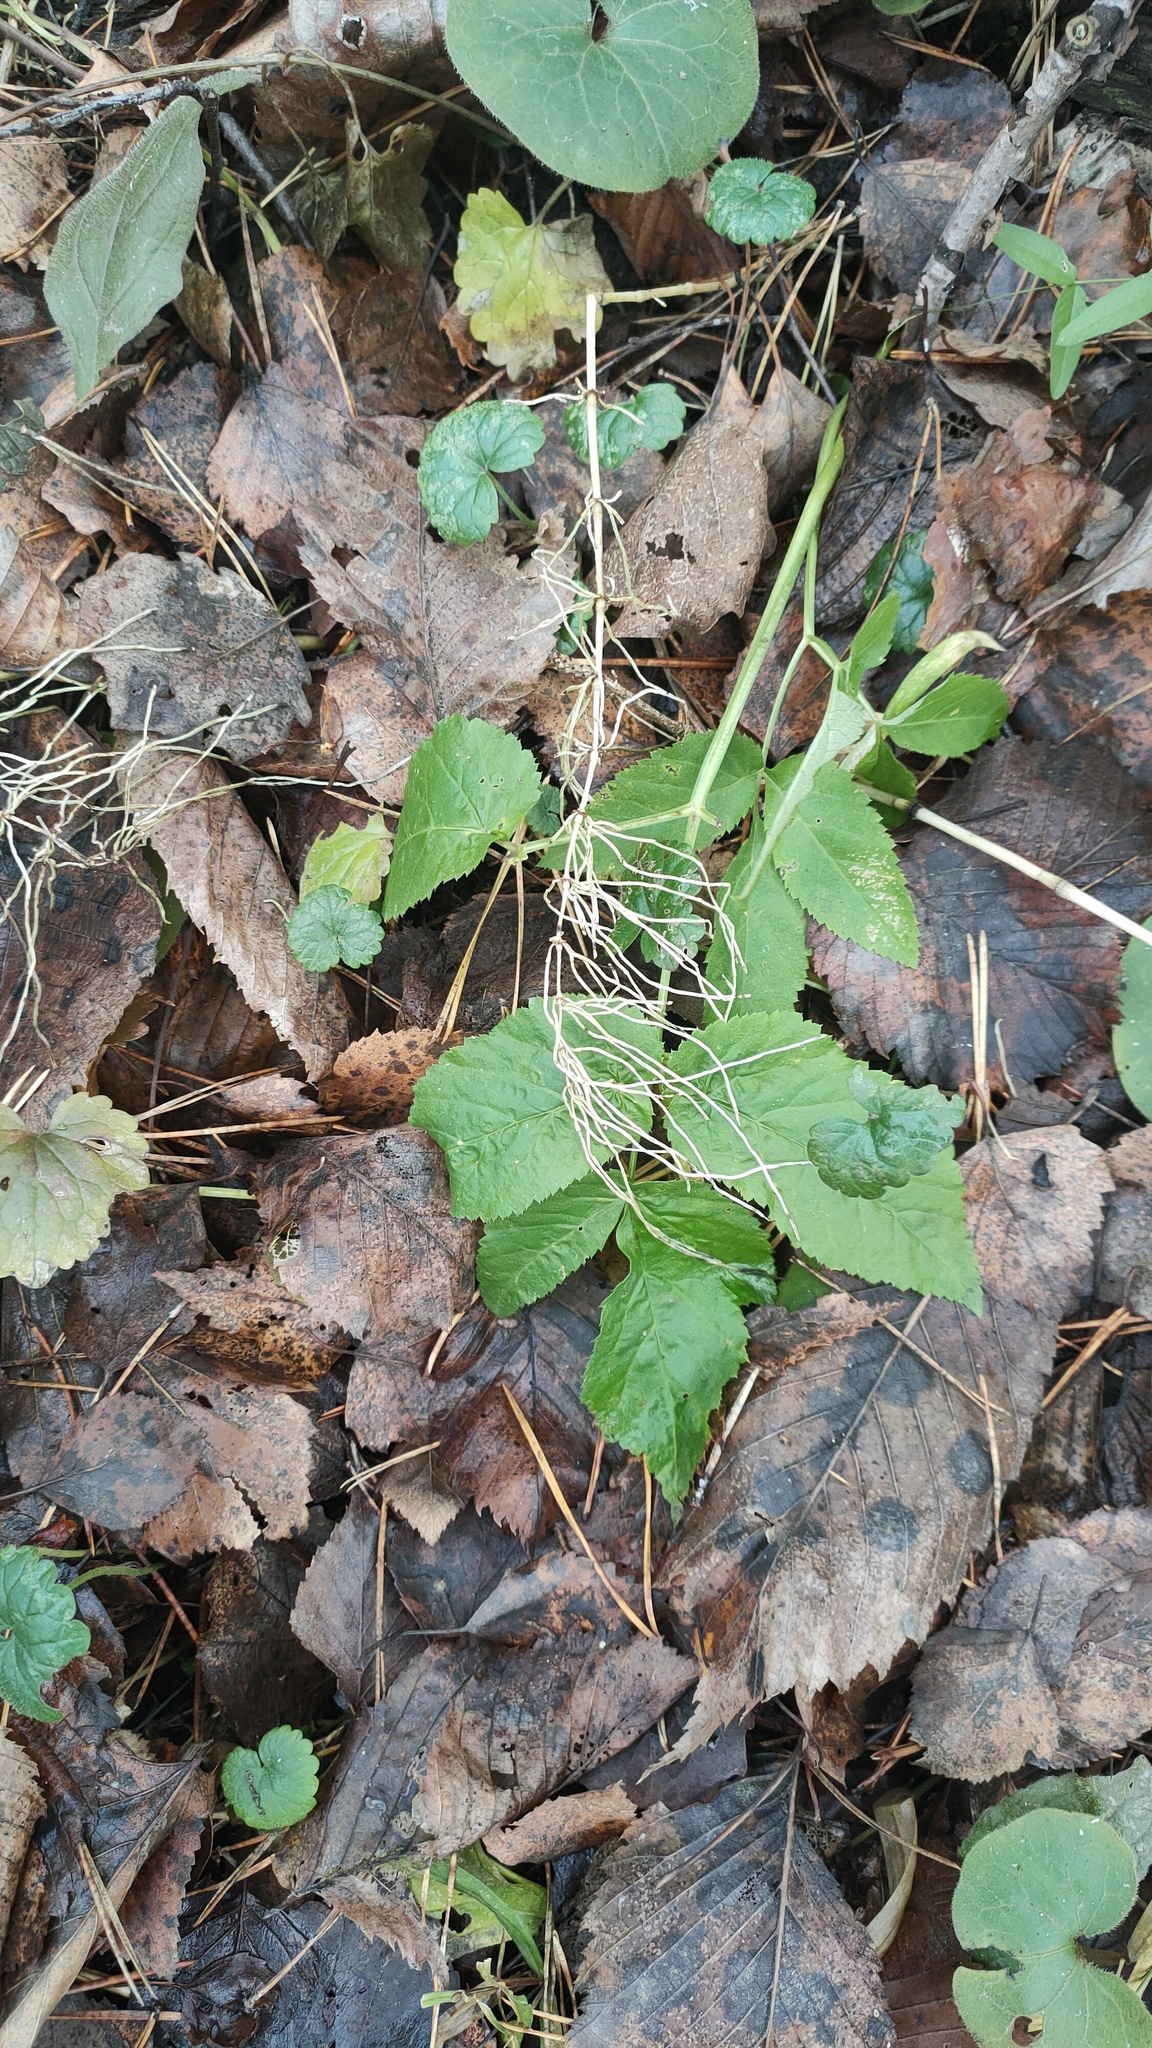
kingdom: Plantae
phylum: Tracheophyta
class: Polypodiopsida
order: Equisetales
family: Equisetaceae
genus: Equisetum
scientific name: Equisetum pratense
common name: Meadow horsetail
